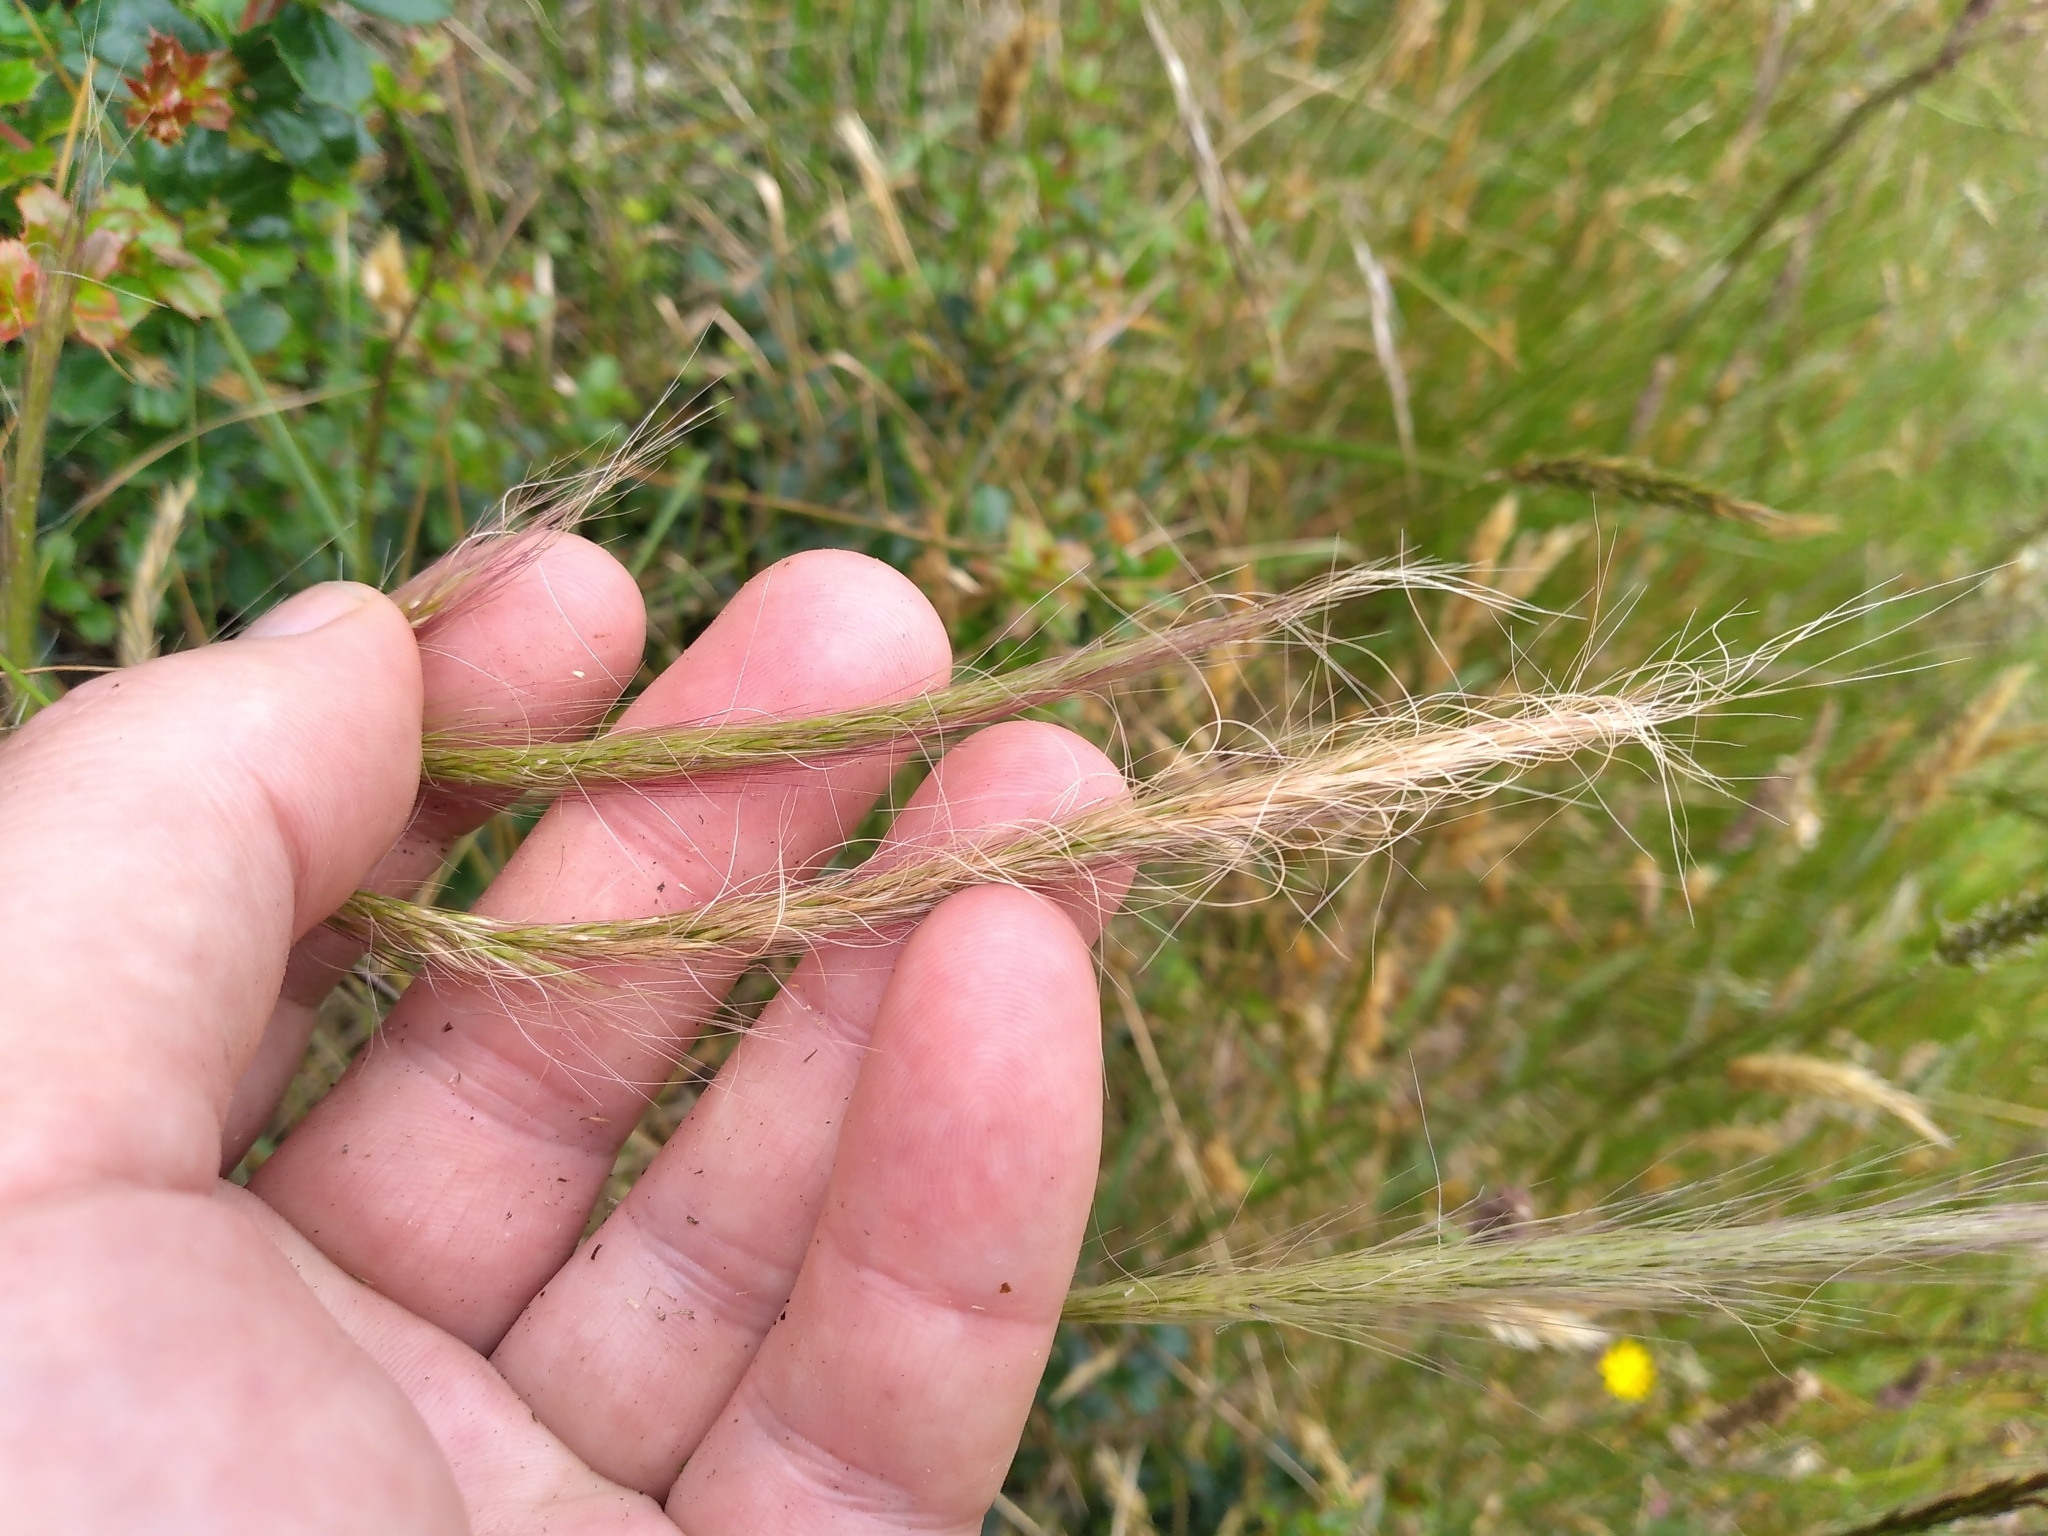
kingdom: Plantae
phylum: Tracheophyta
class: Liliopsida
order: Poales
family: Poaceae
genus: Dichelachne
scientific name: Dichelachne crinita
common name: Clovenfoot plumegrass
